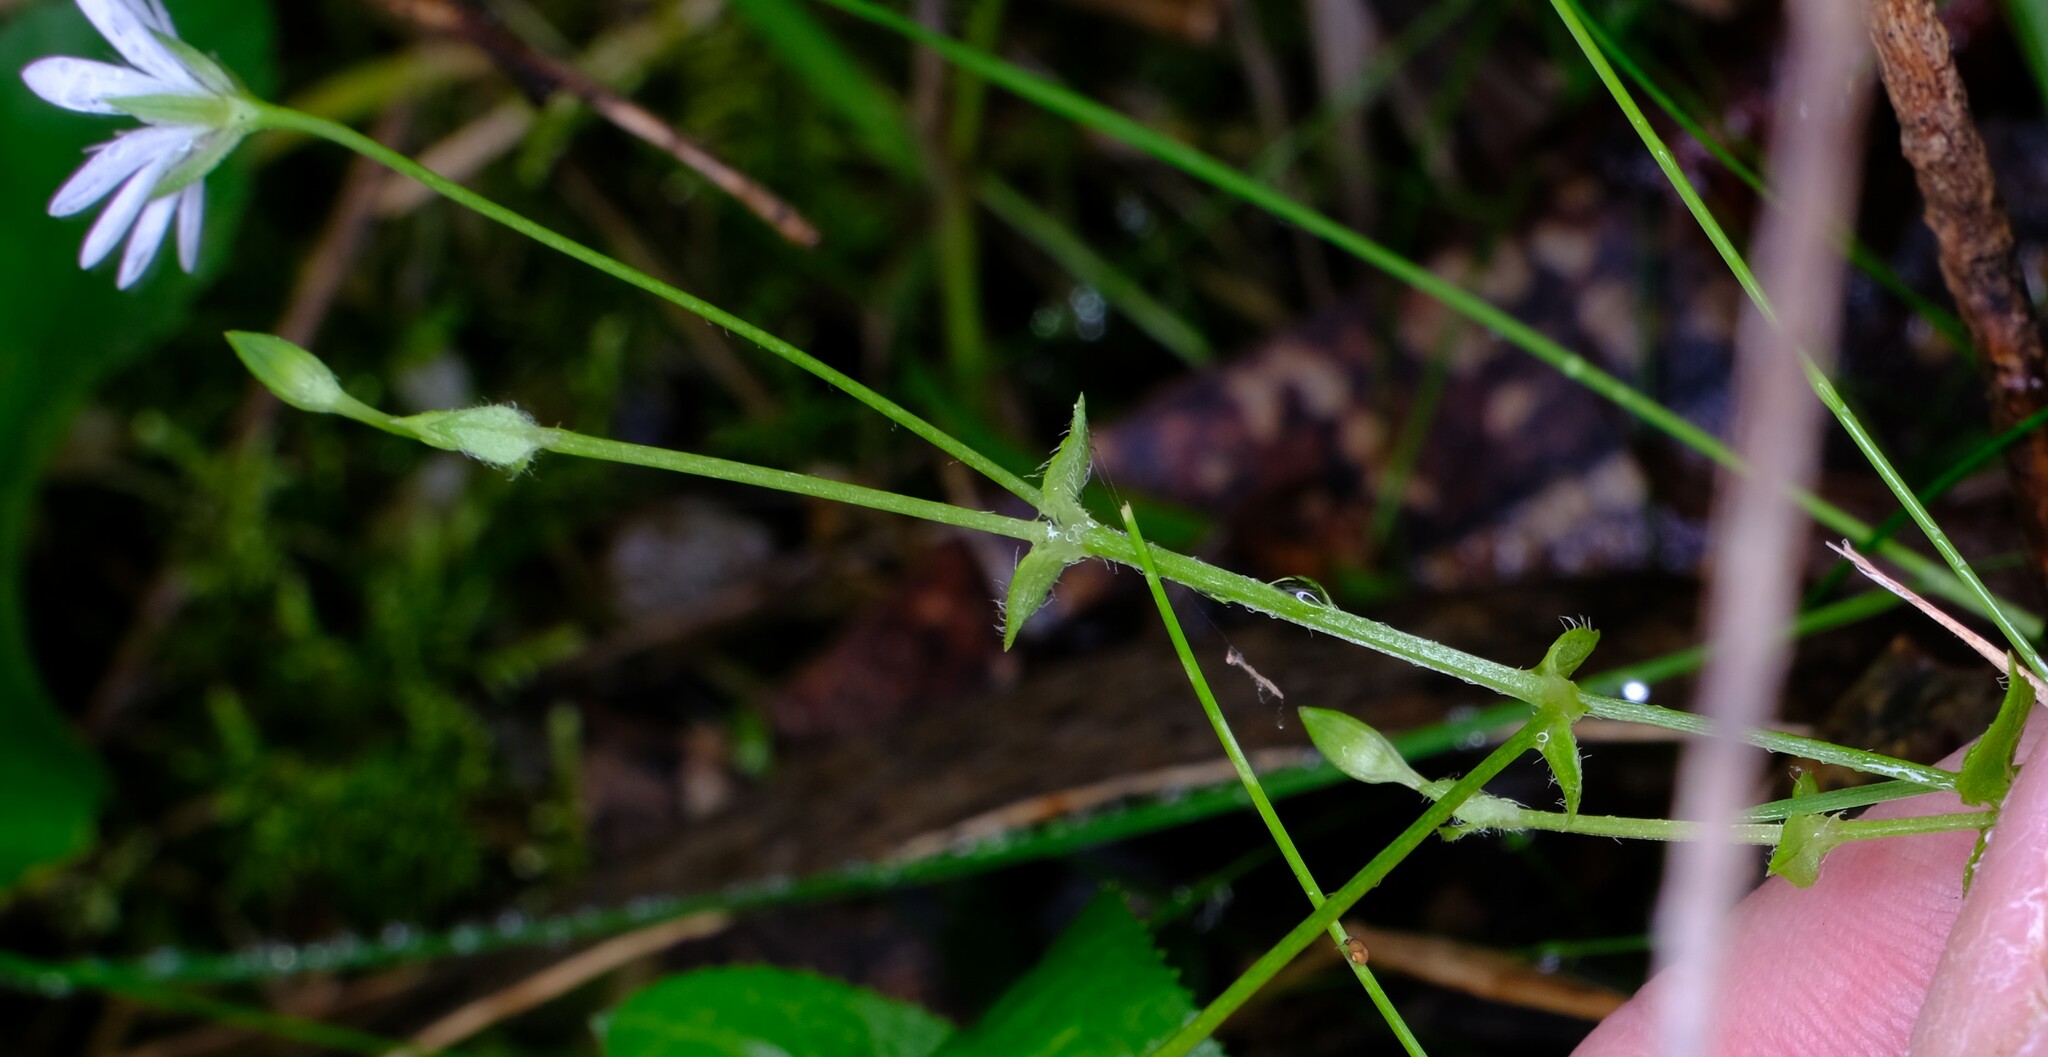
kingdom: Plantae
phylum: Tracheophyta
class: Magnoliopsida
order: Caryophyllales
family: Caryophyllaceae
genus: Stellaria
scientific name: Stellaria flaccida
